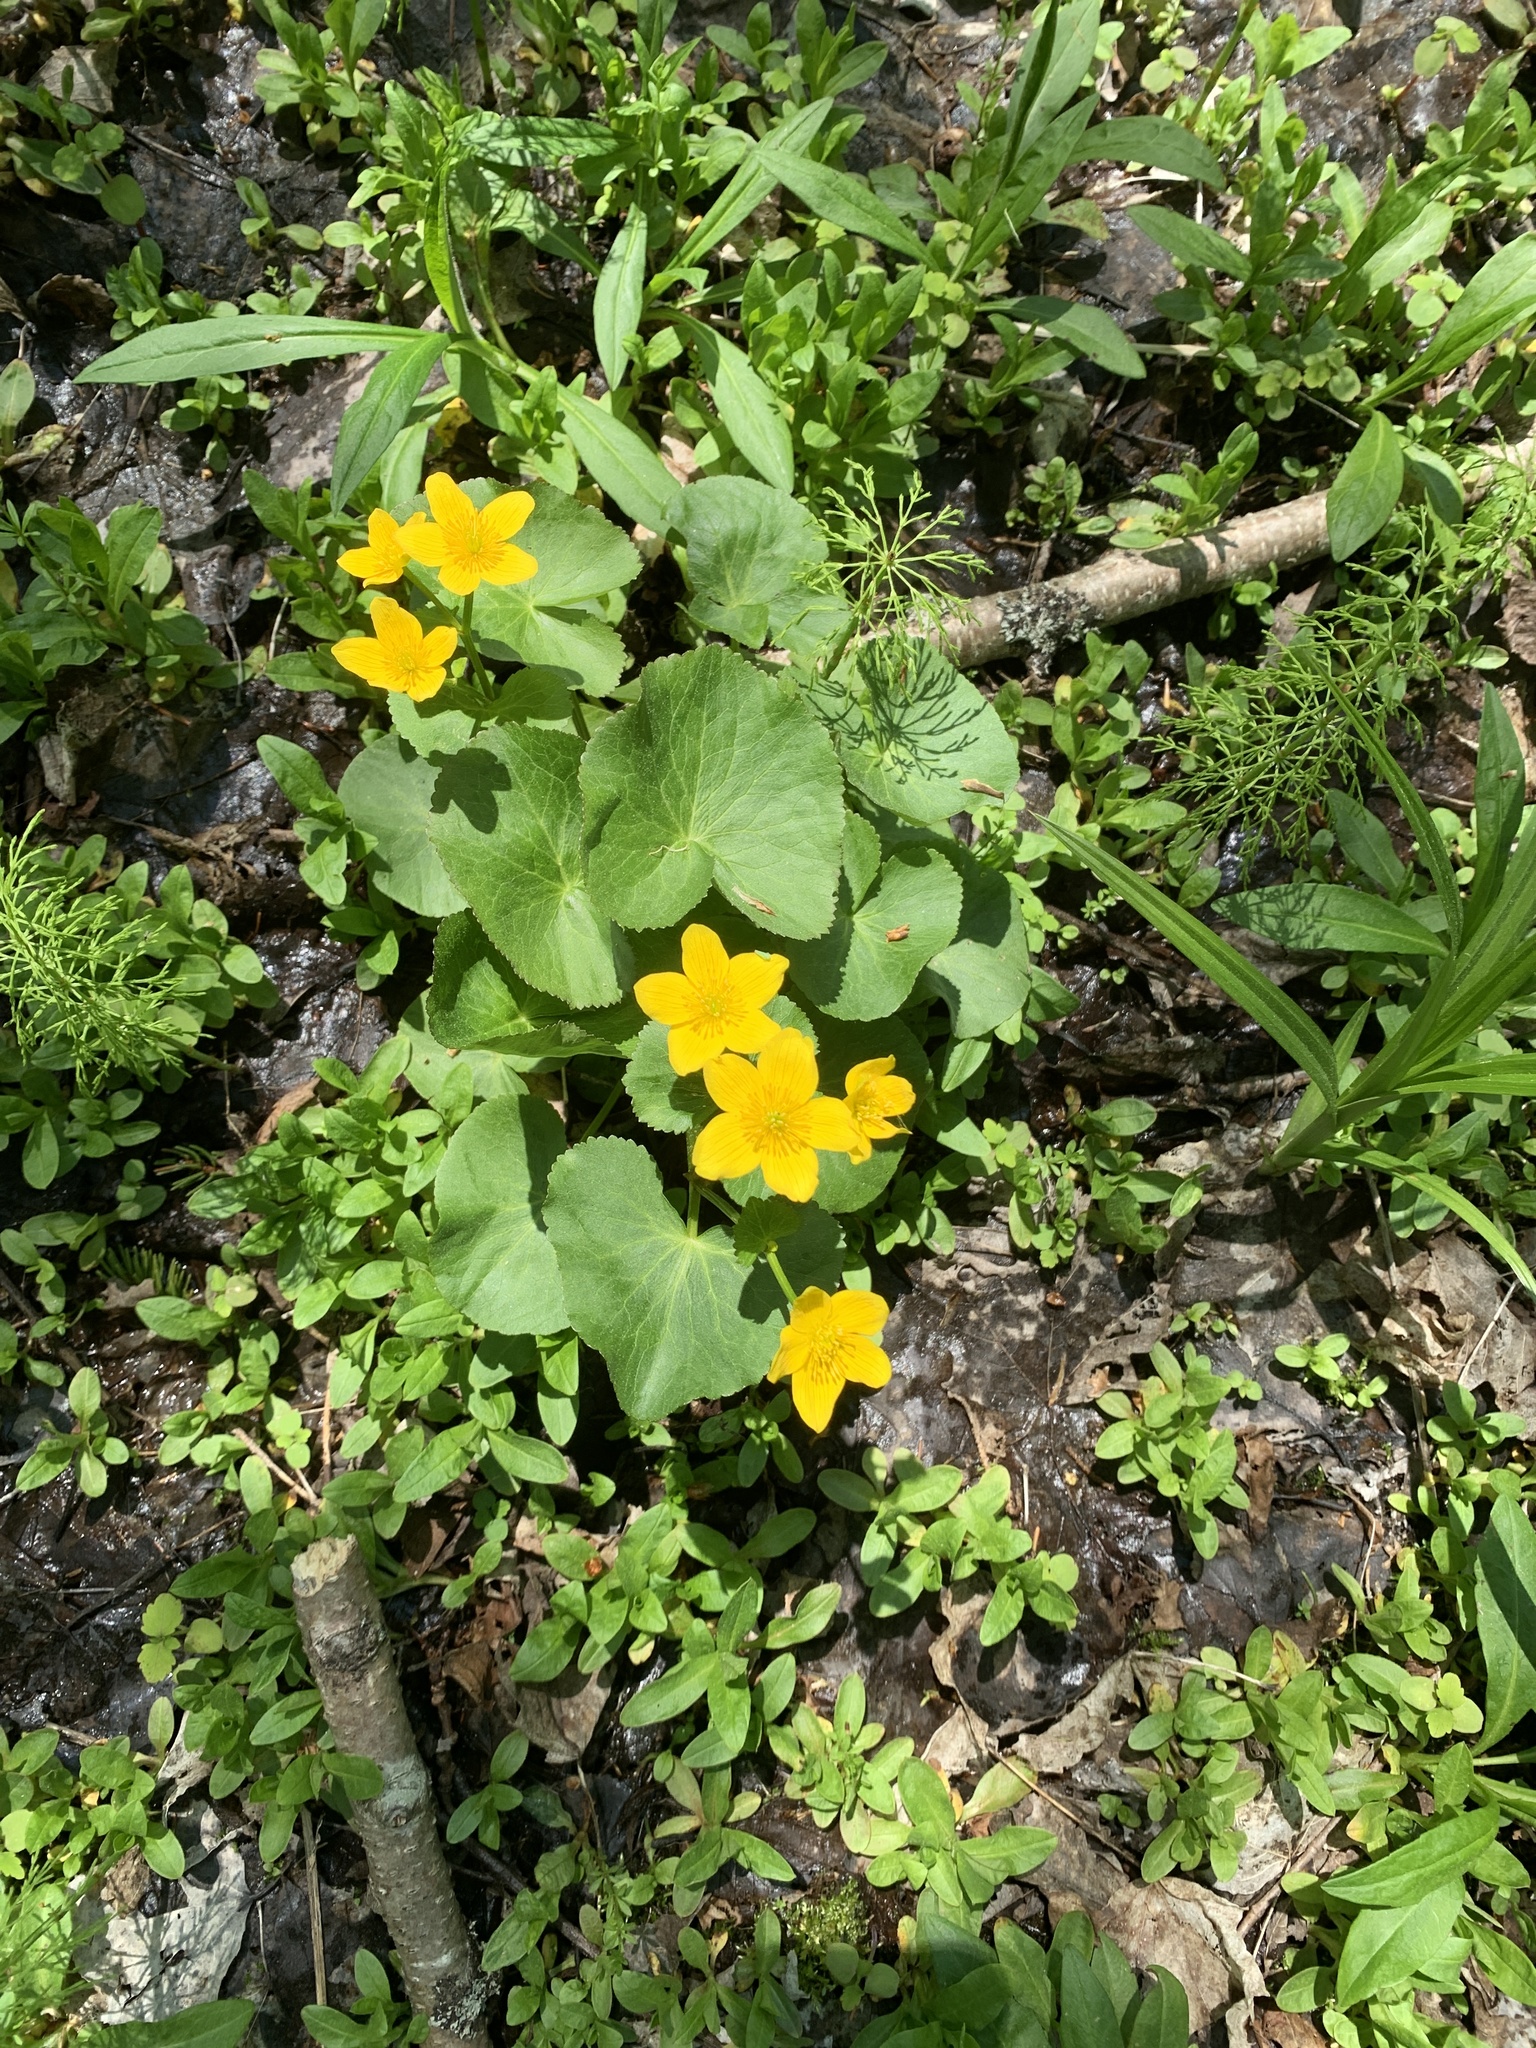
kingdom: Plantae
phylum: Tracheophyta
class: Magnoliopsida
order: Ranunculales
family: Ranunculaceae
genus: Caltha
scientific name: Caltha palustris
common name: Marsh marigold
